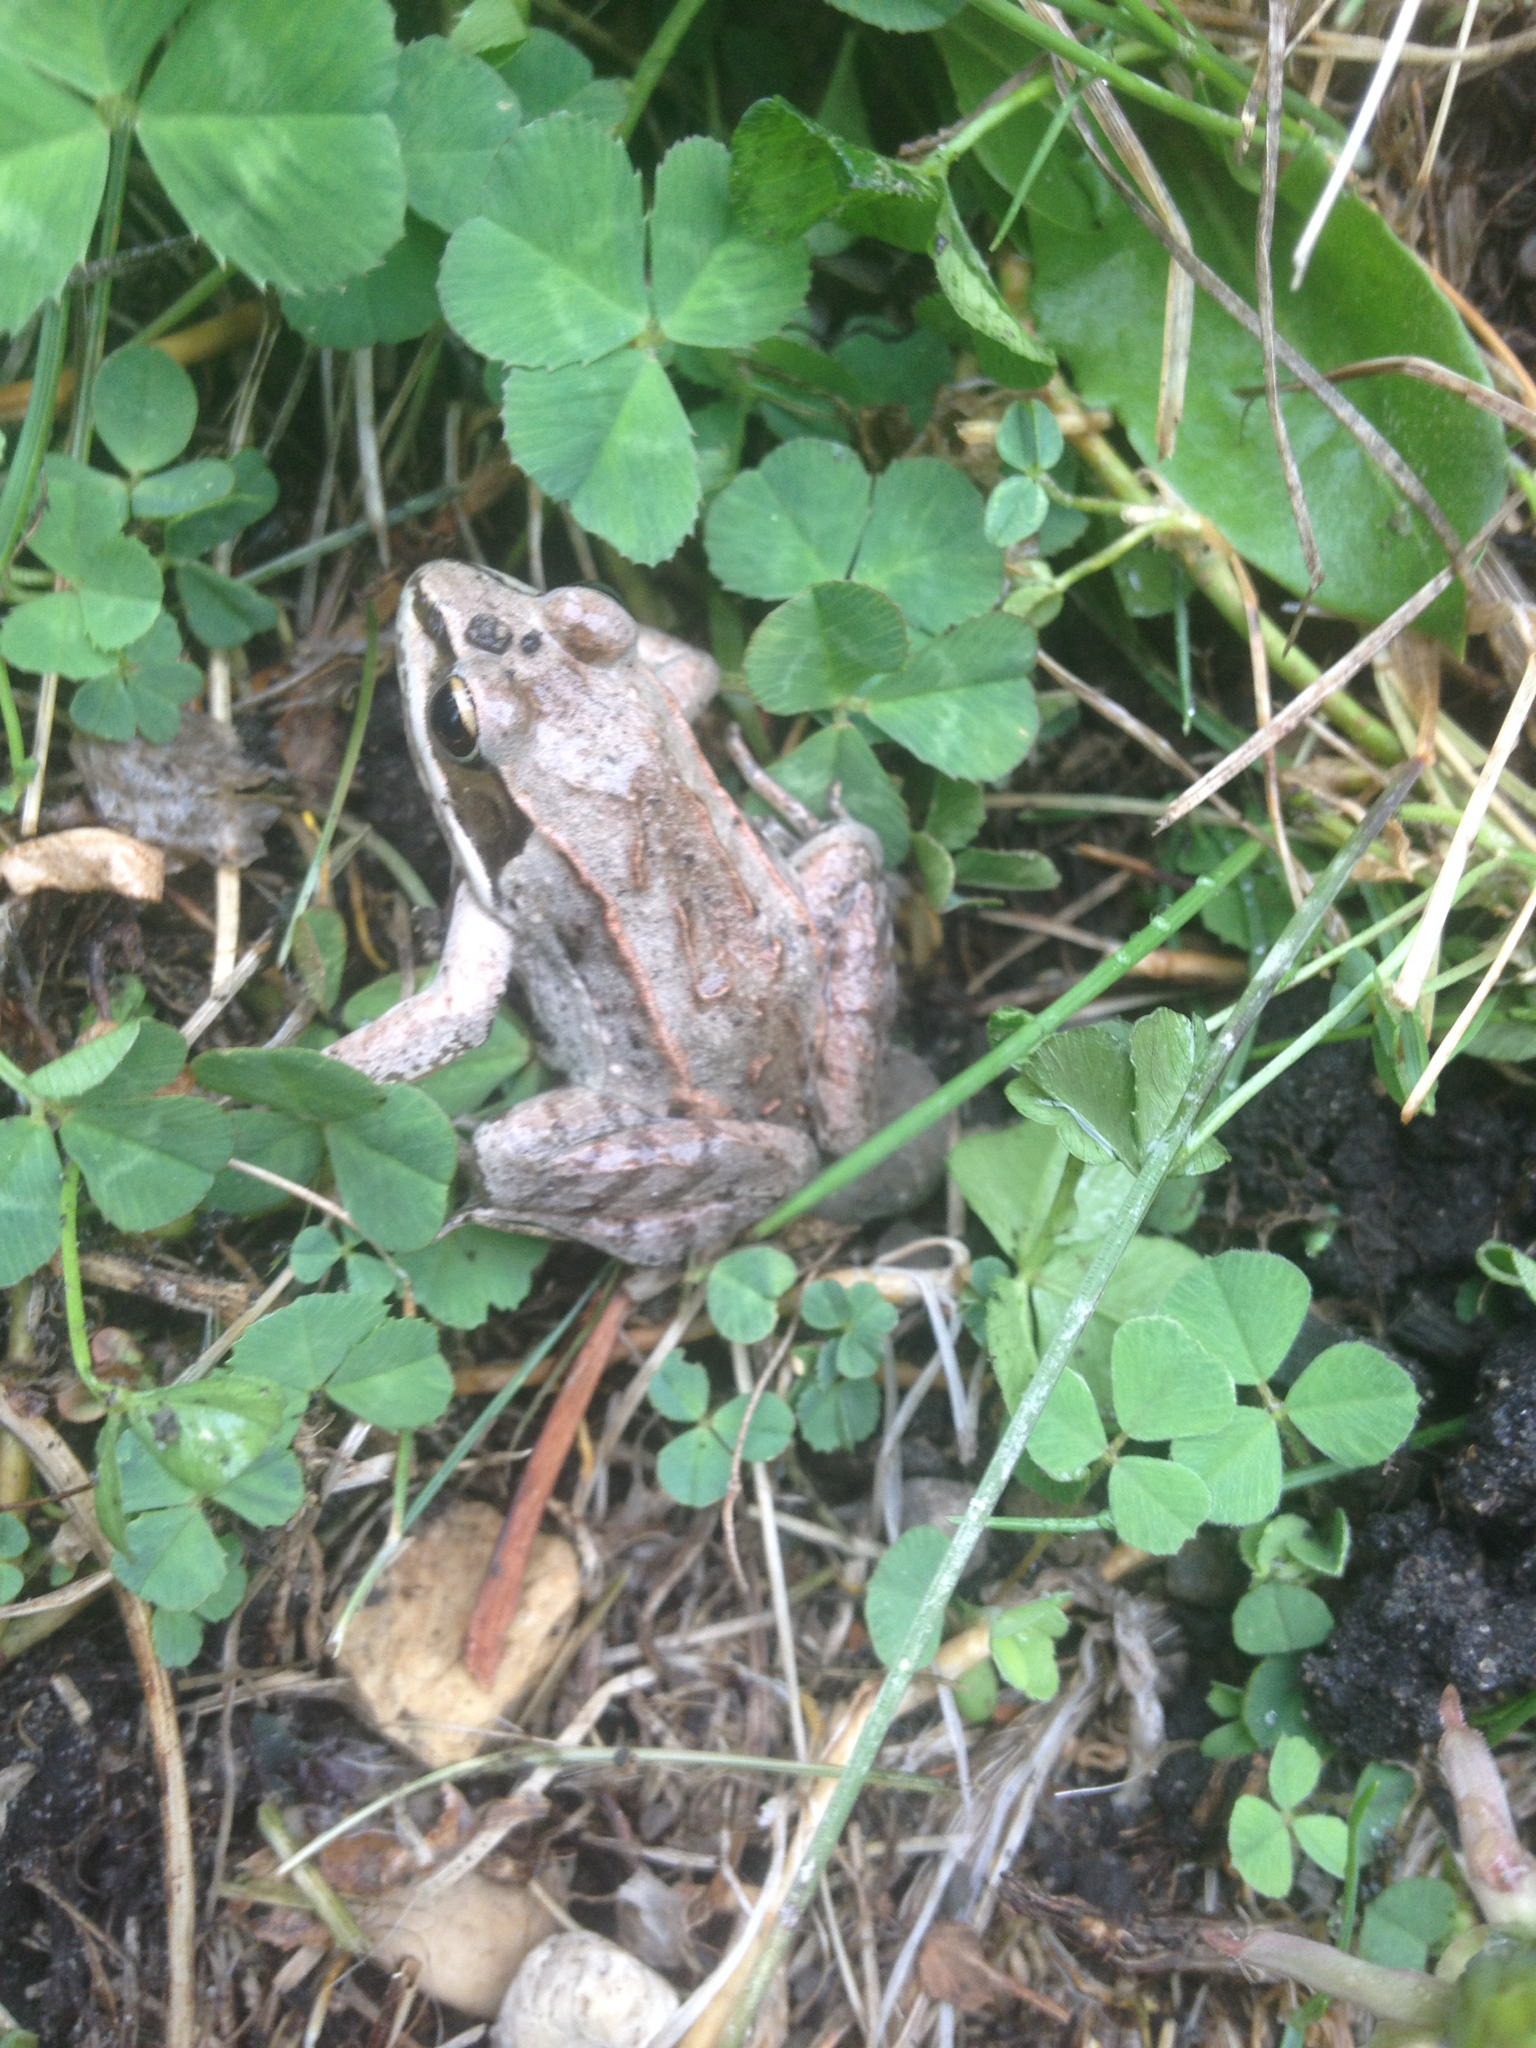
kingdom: Animalia
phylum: Chordata
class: Amphibia
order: Anura
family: Ranidae
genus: Lithobates
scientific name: Lithobates sylvaticus
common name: Wood frog
